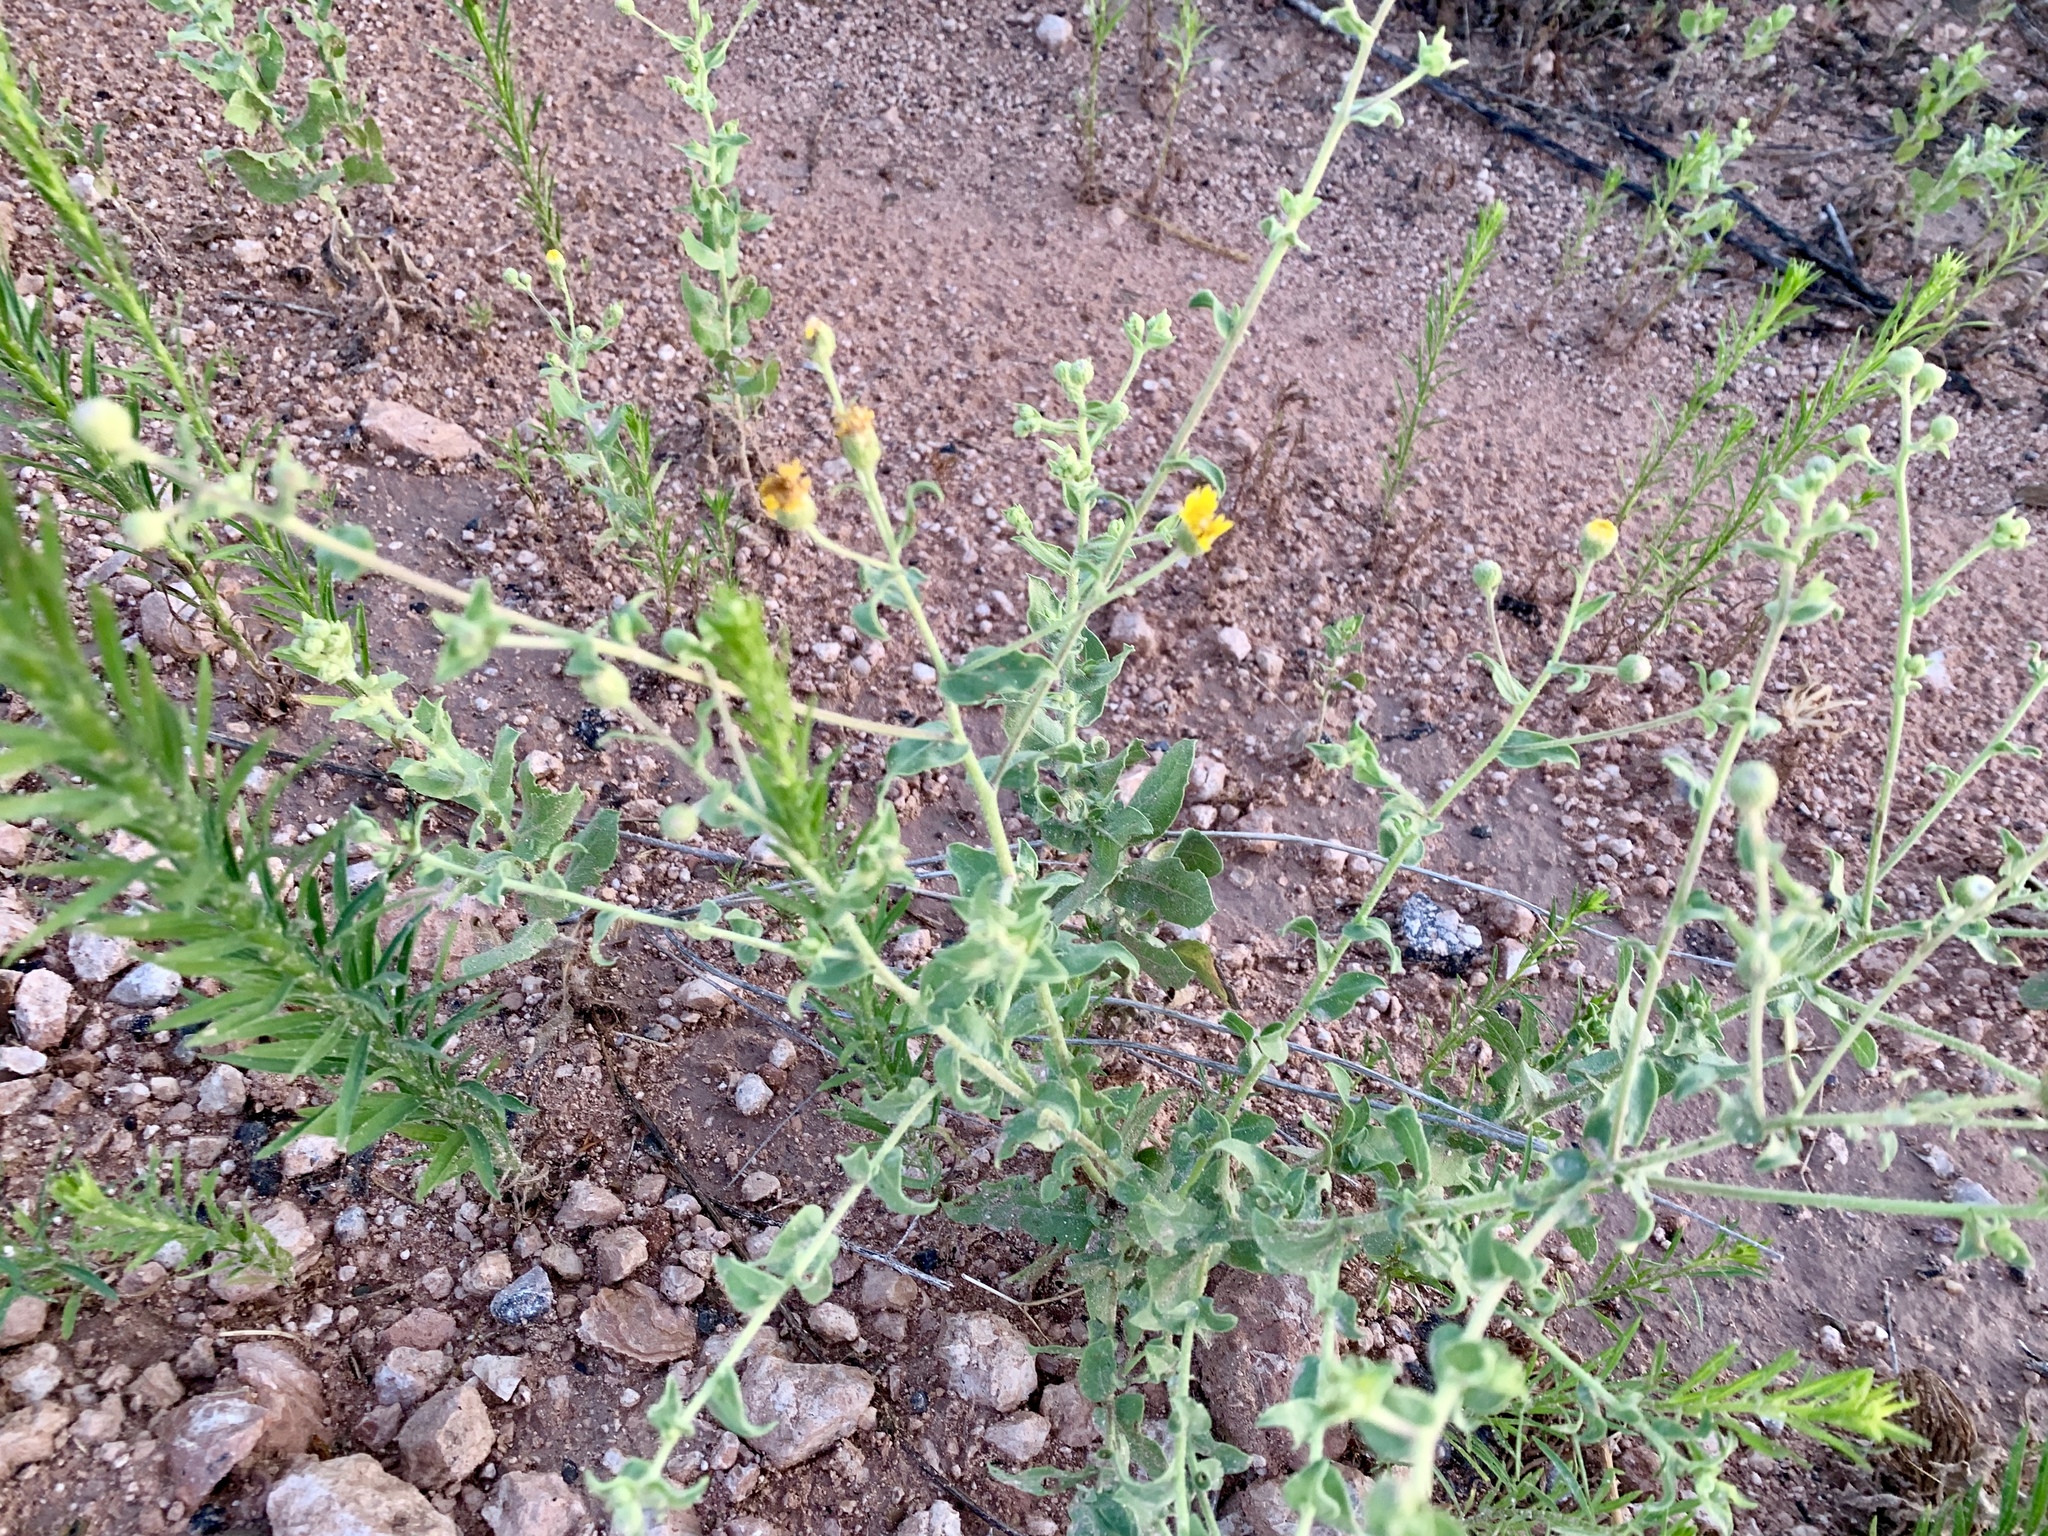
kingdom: Plantae
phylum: Tracheophyta
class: Magnoliopsida
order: Asterales
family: Asteraceae
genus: Heterotheca
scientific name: Heterotheca subaxillaris
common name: Camphorweed
